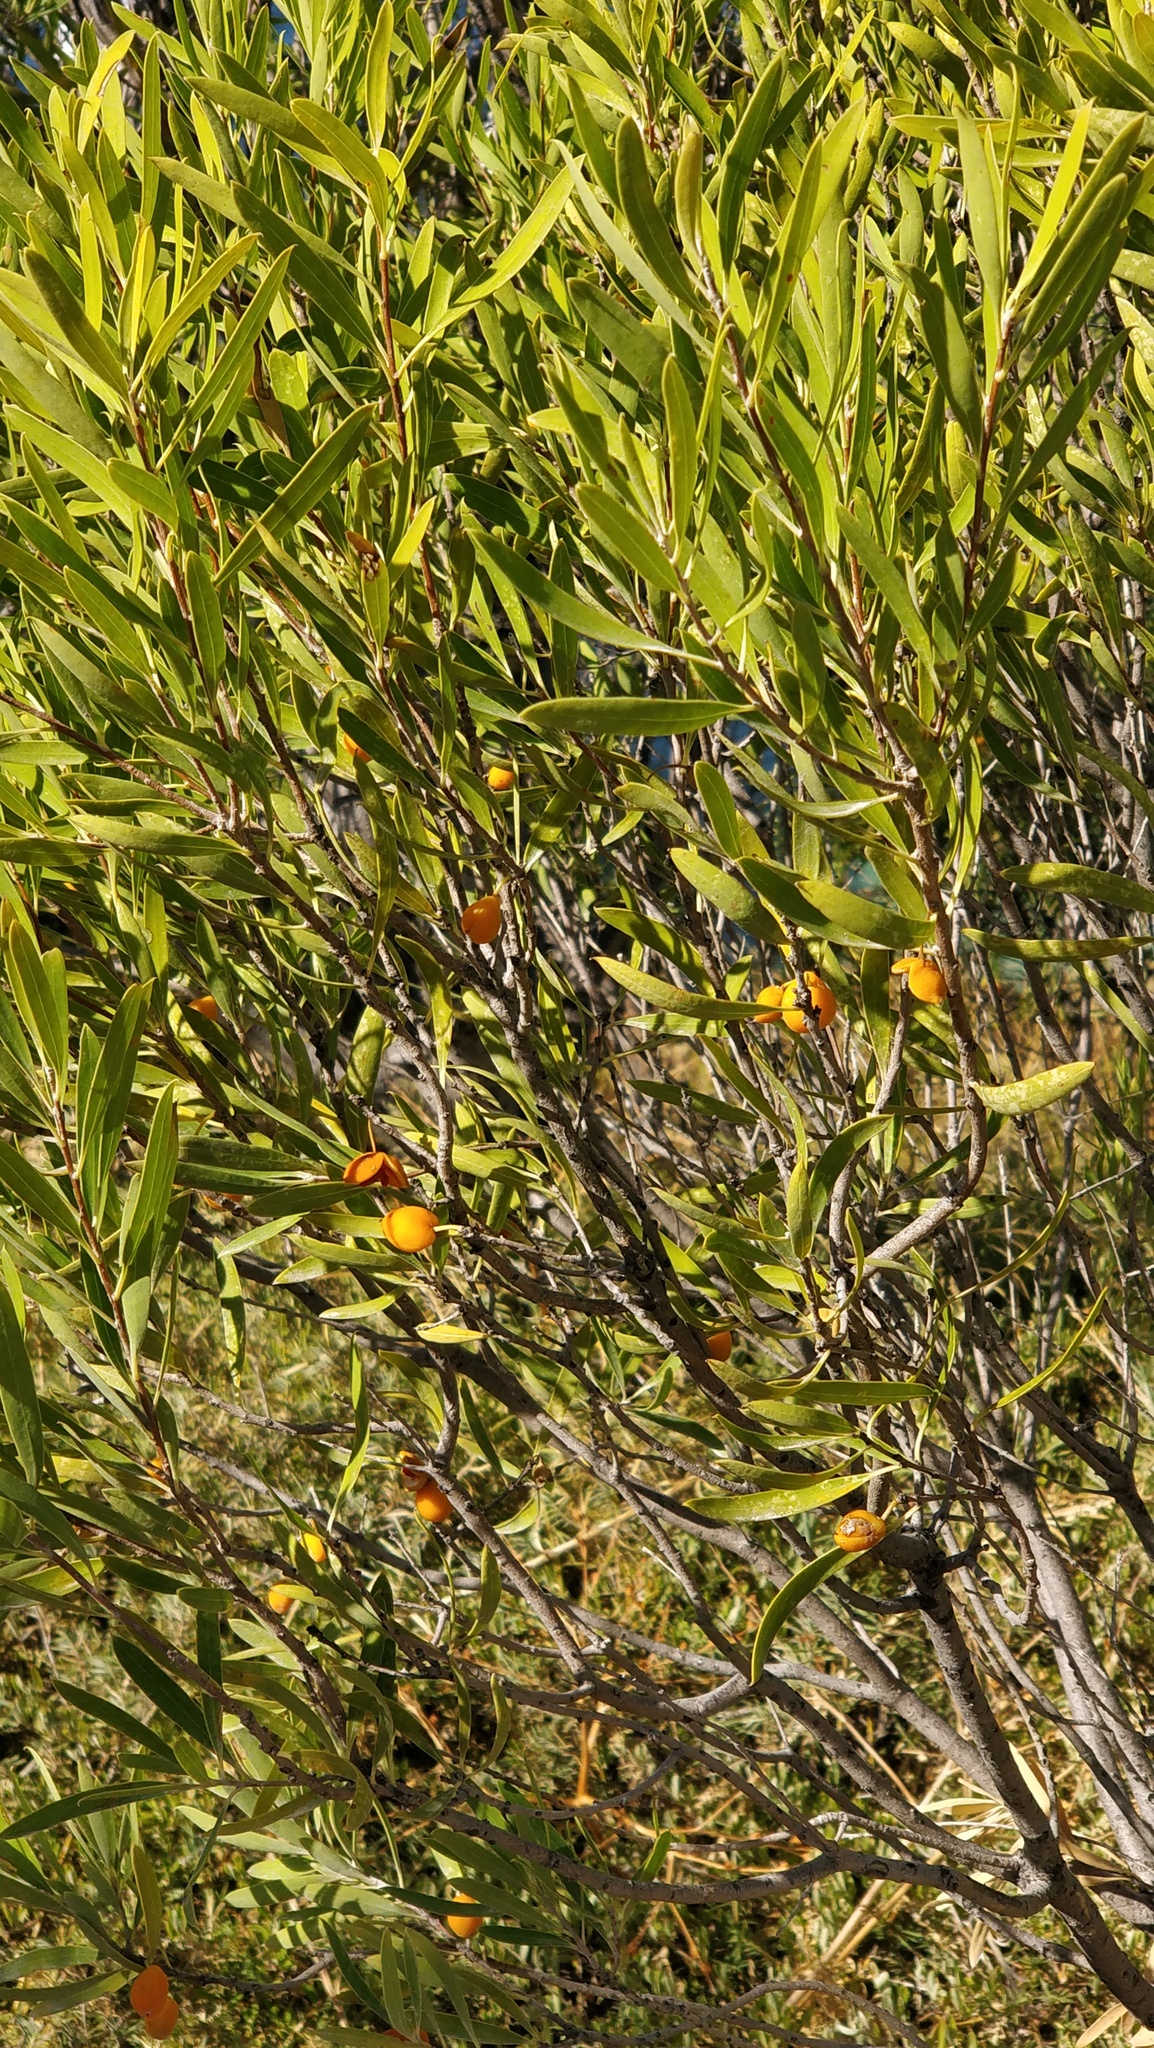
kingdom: Plantae
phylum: Tracheophyta
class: Magnoliopsida
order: Apiales
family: Pittosporaceae
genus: Pittosporum
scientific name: Pittosporum ligustrifolium
